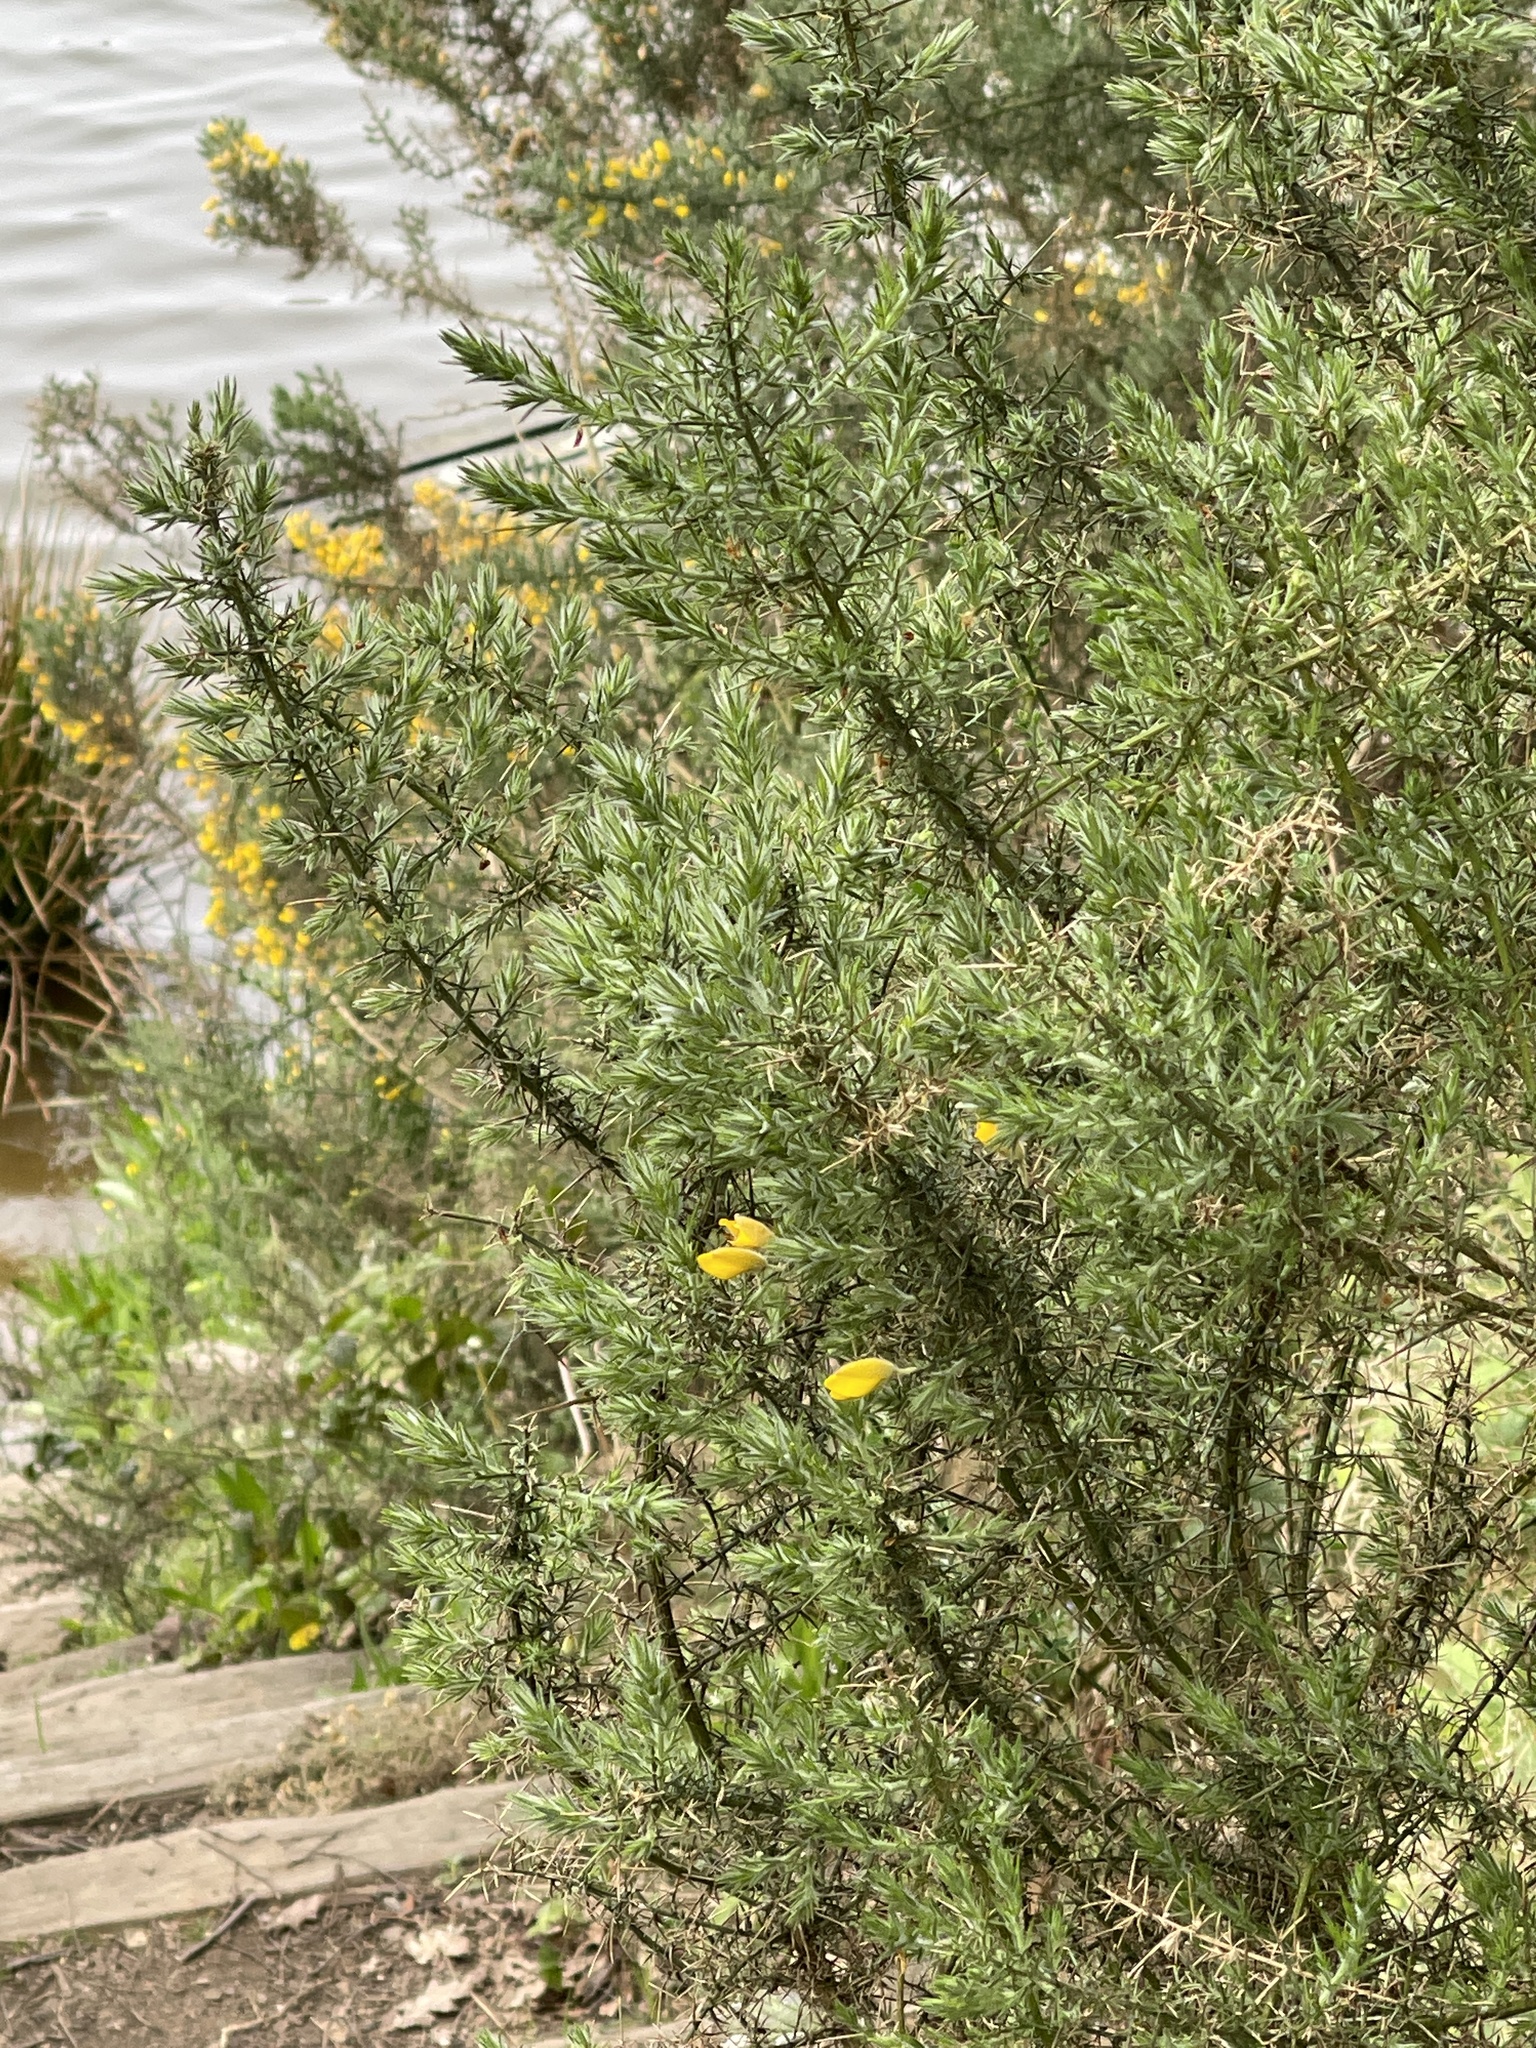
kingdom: Plantae
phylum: Tracheophyta
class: Magnoliopsida
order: Fabales
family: Fabaceae
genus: Ulex
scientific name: Ulex europaeus
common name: Common gorse
